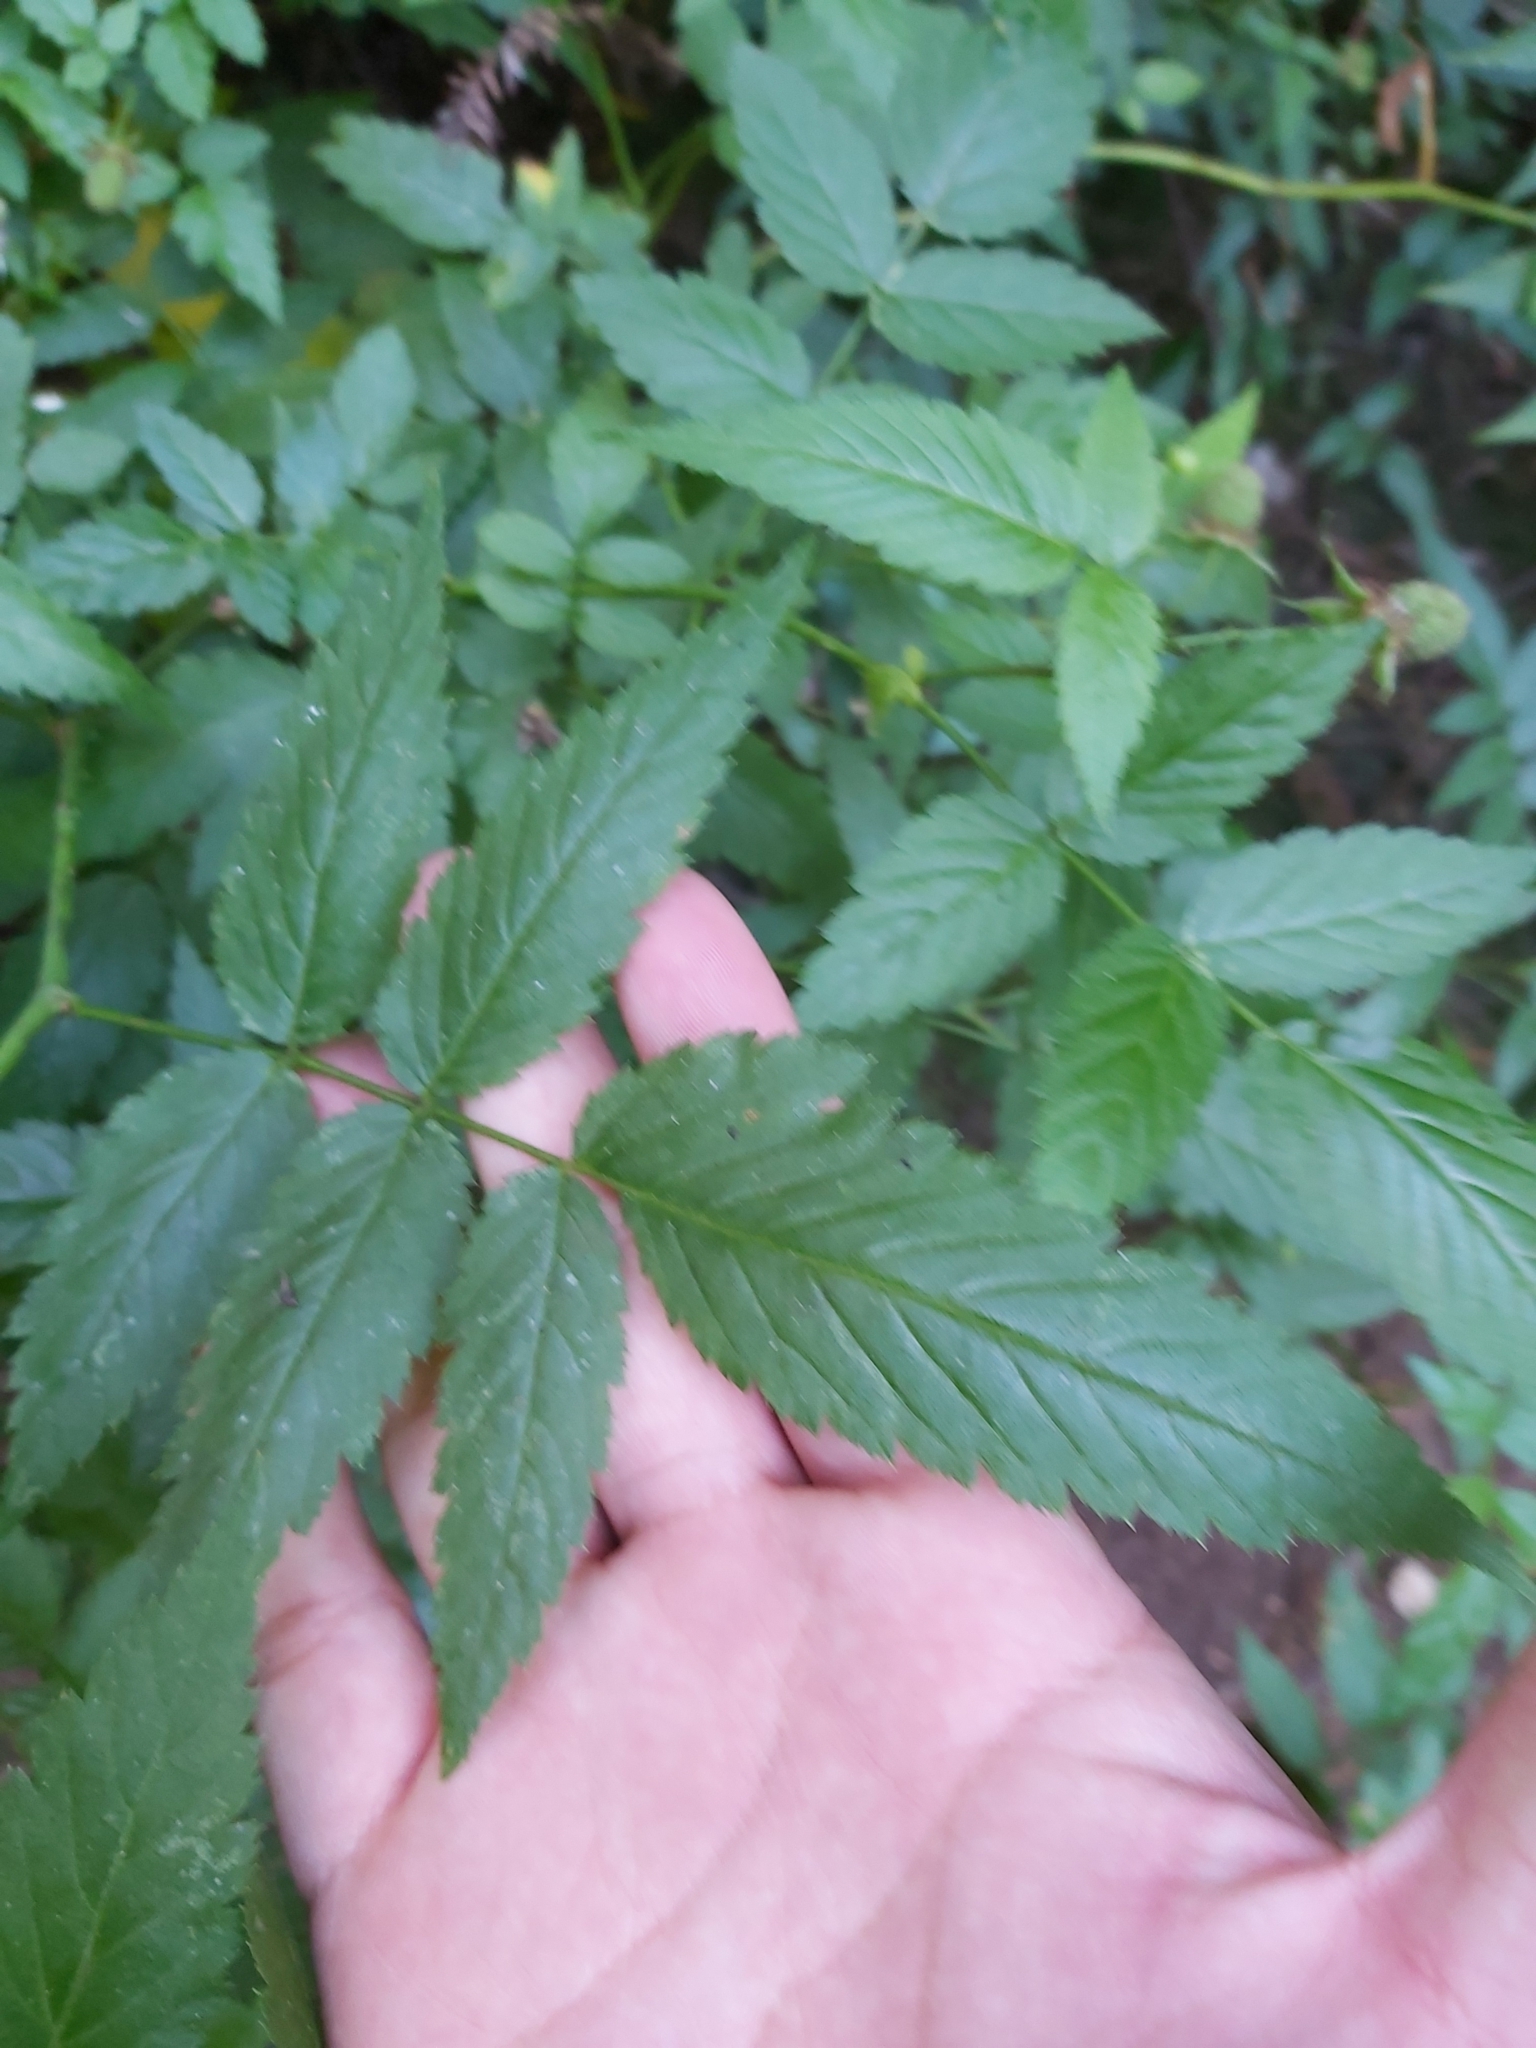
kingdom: Plantae
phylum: Tracheophyta
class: Magnoliopsida
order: Rosales
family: Rosaceae
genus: Rubus
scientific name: Rubus queenslandicus
